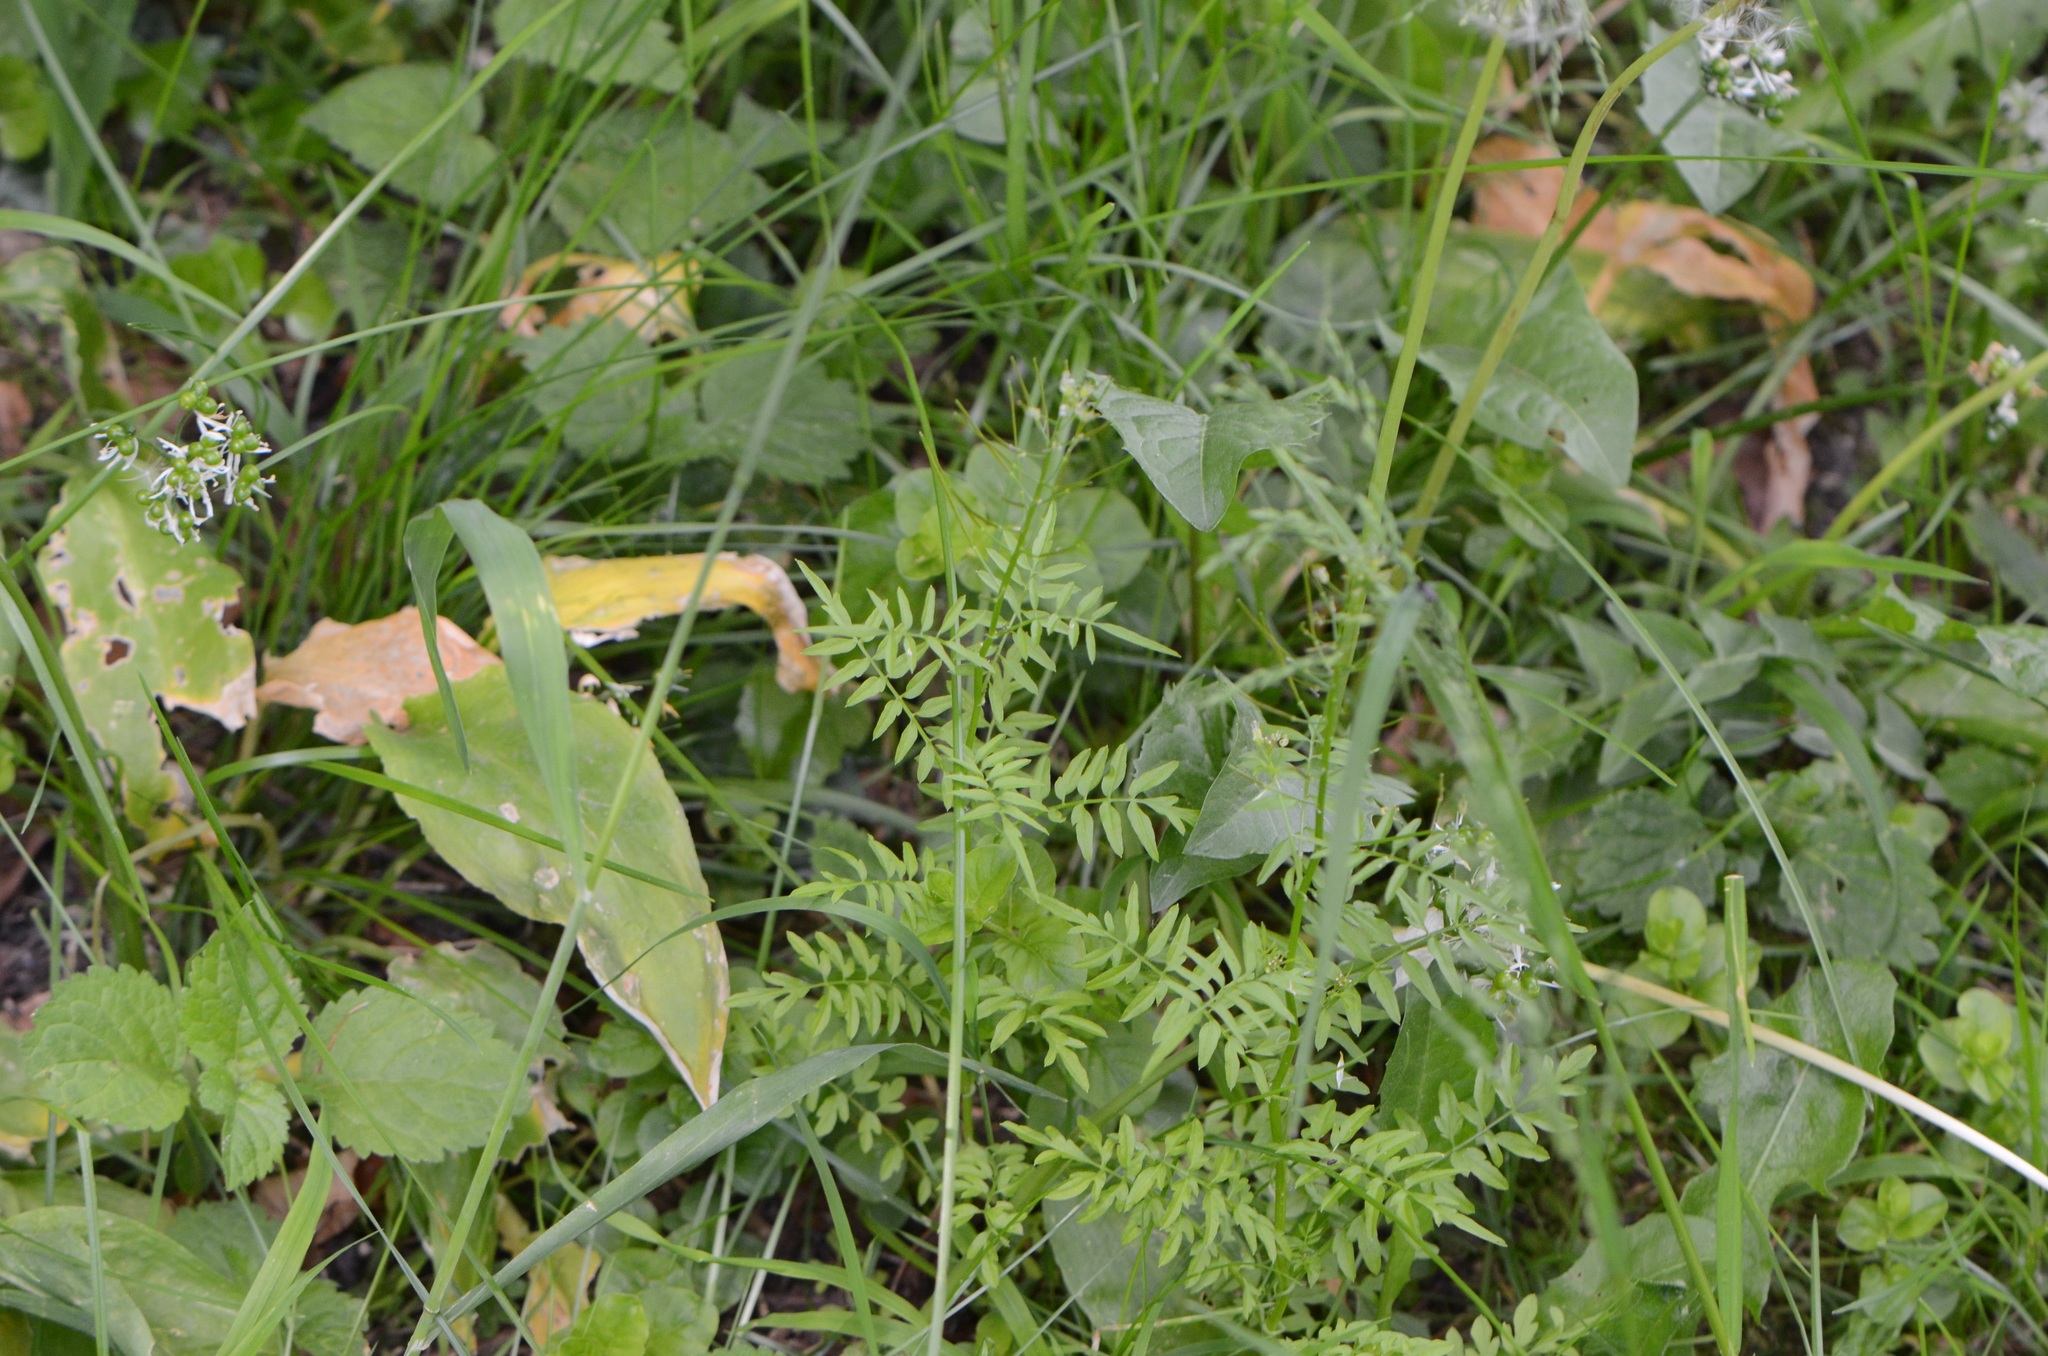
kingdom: Plantae
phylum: Tracheophyta
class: Magnoliopsida
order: Brassicales
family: Brassicaceae
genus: Cardamine
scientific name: Cardamine impatiens
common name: Narrow-leaved bitter-cress
